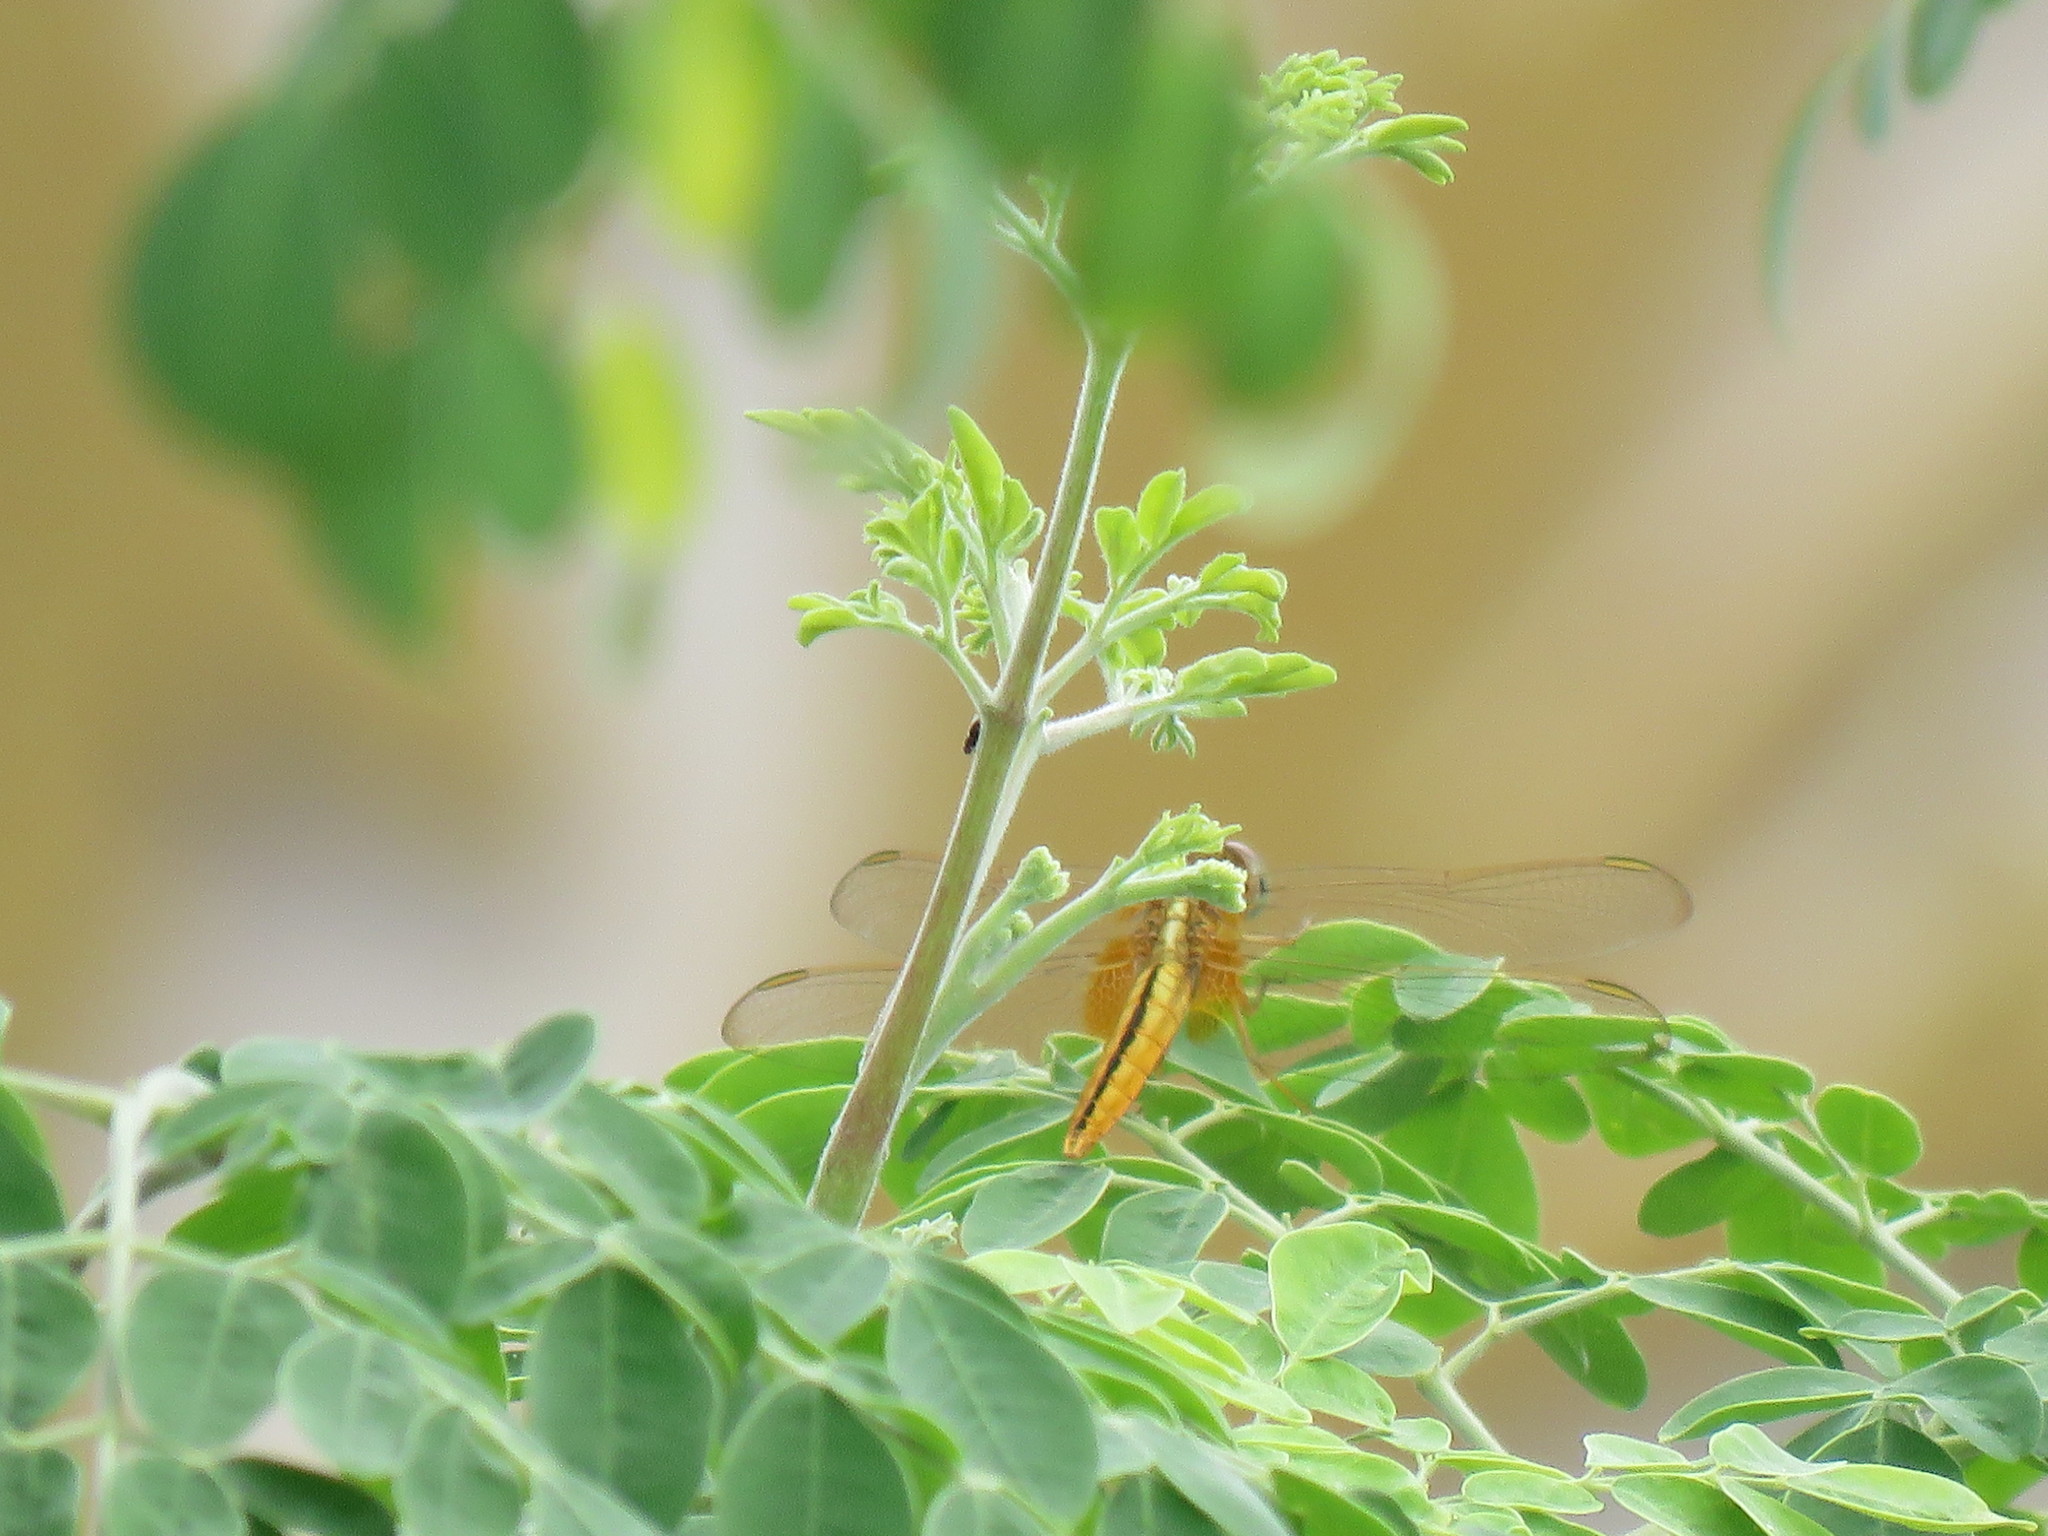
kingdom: Animalia
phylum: Arthropoda
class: Insecta
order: Odonata
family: Libellulidae
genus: Crocothemis
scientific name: Crocothemis servilia
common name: Scarlet skimmer
